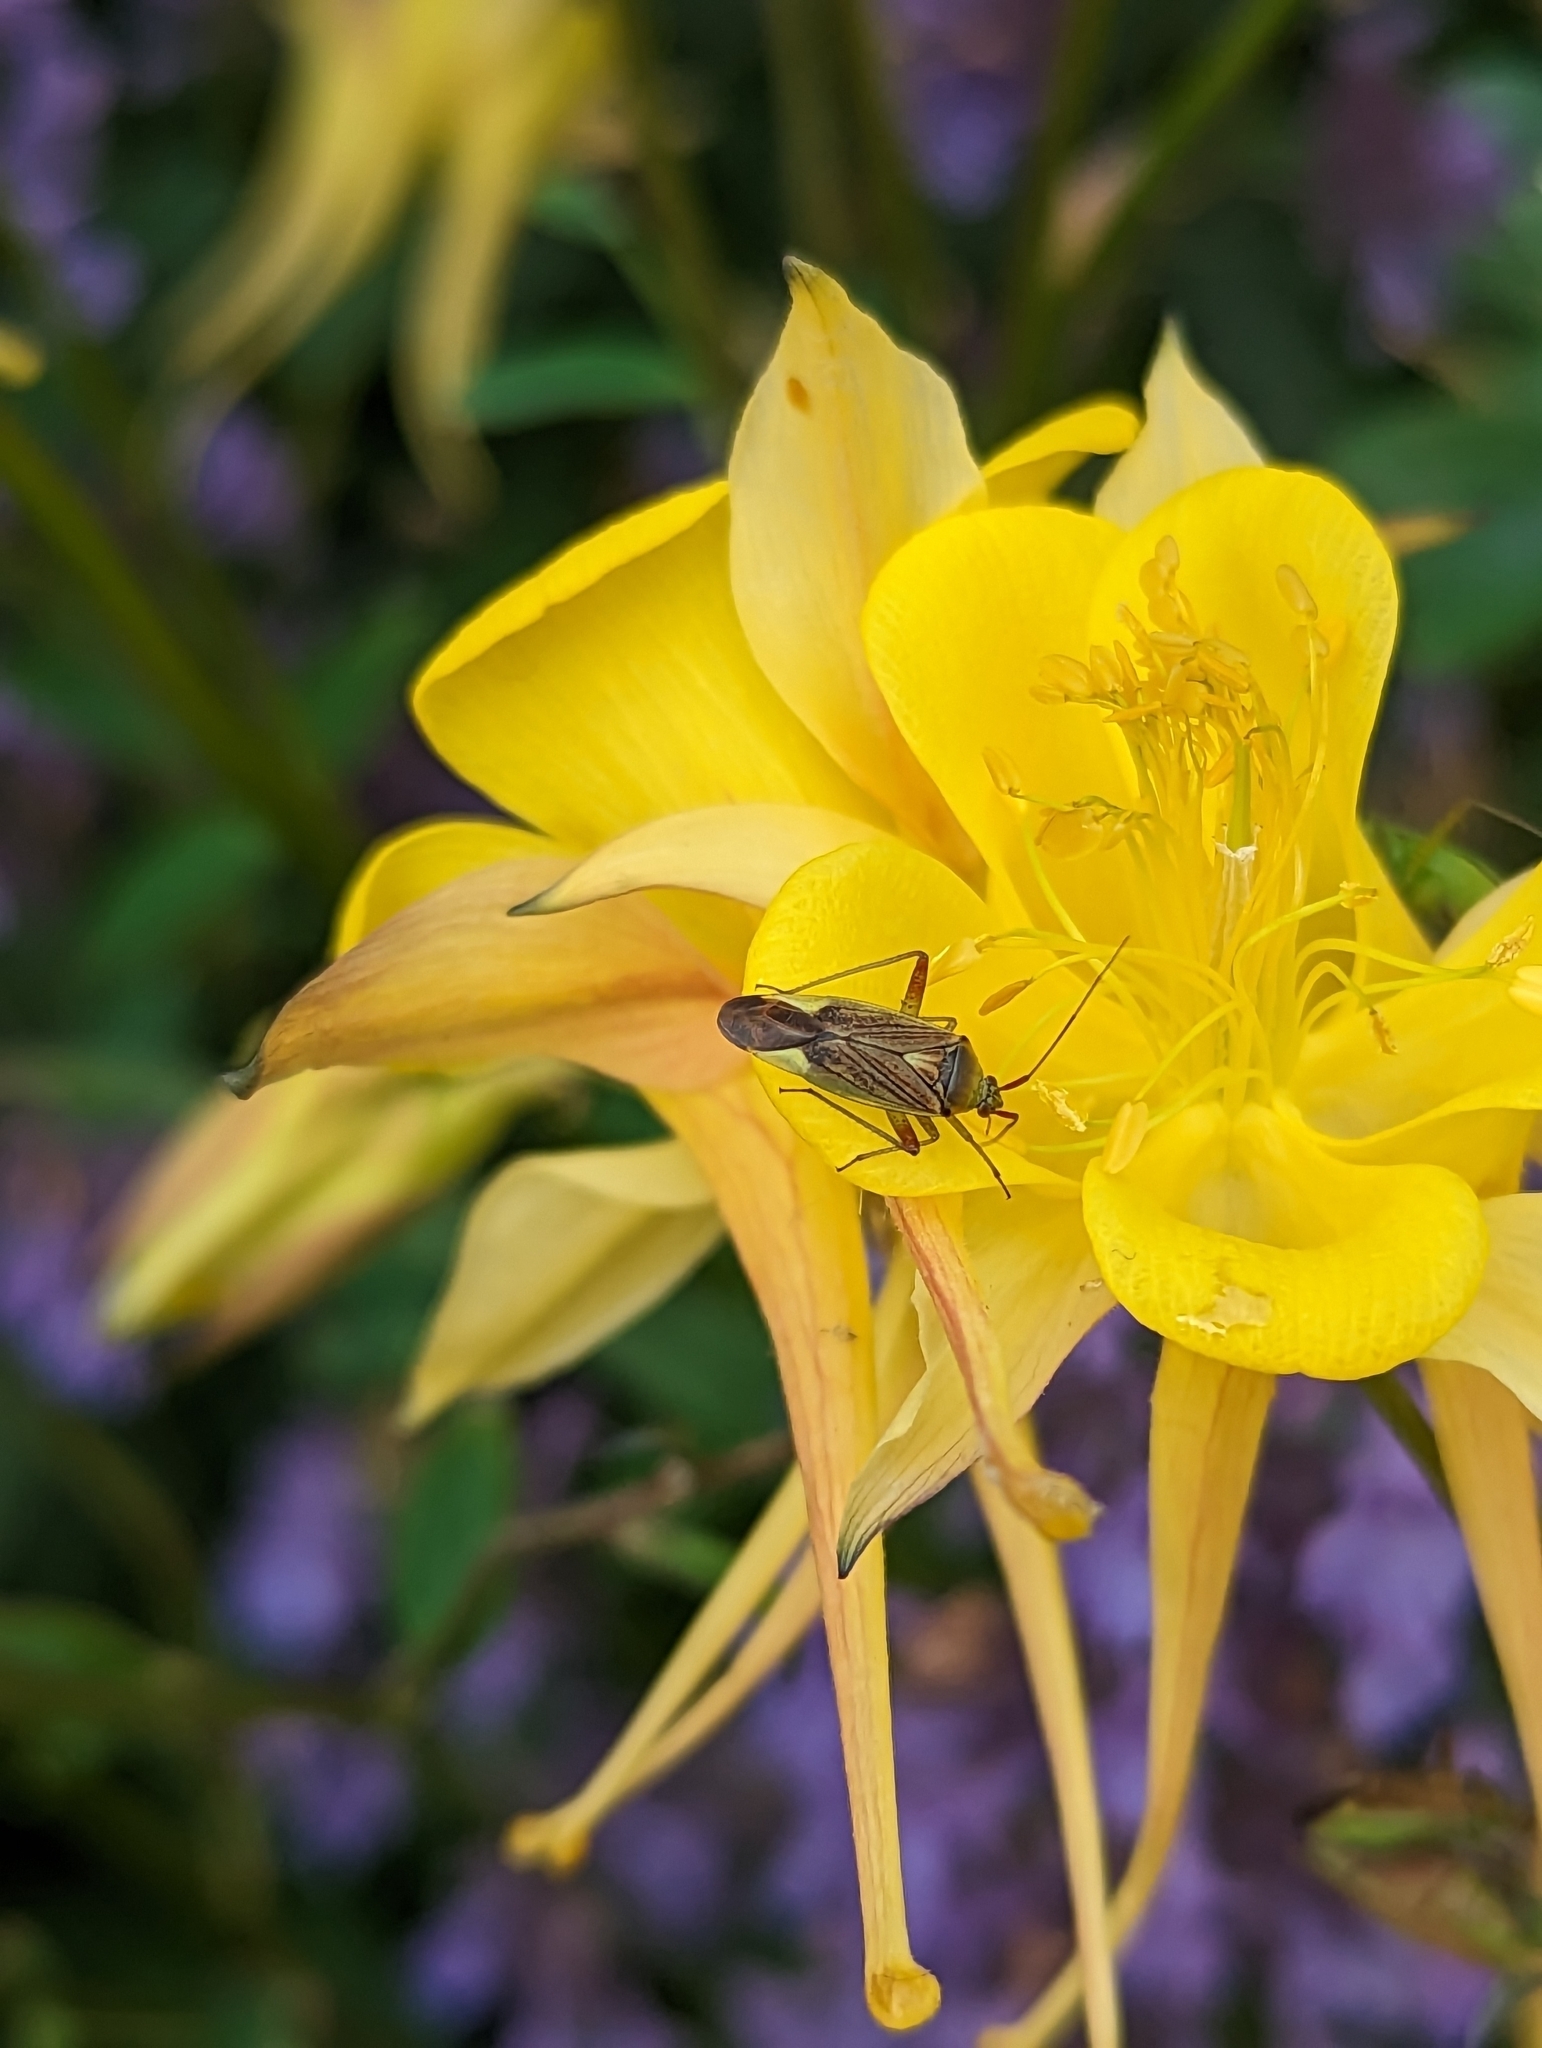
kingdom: Animalia
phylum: Arthropoda
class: Insecta
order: Hemiptera
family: Miridae
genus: Closterotomus
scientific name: Closterotomus trivialis
